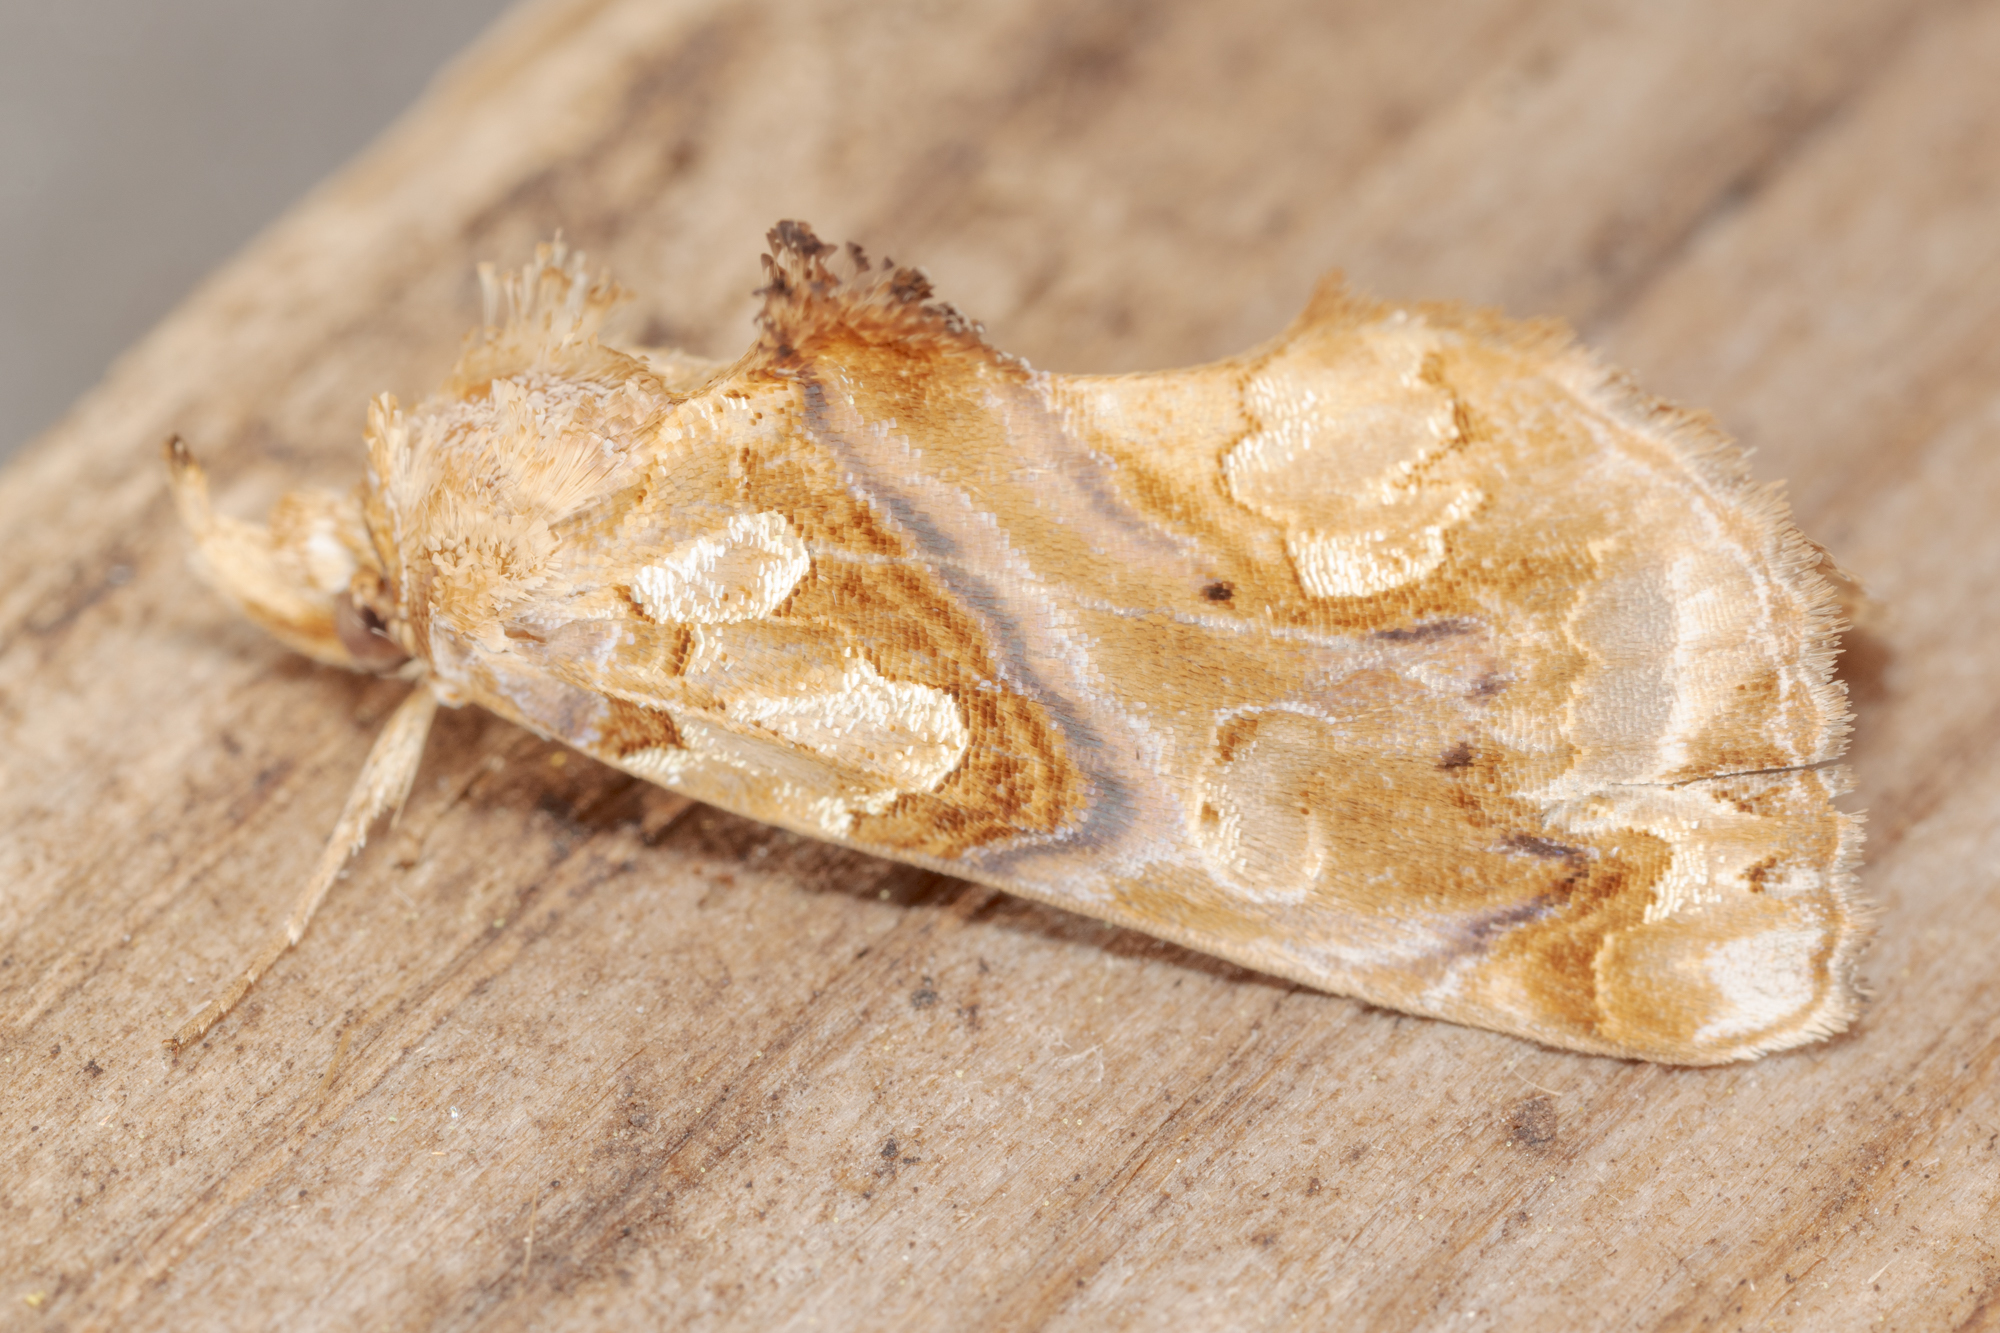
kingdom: Animalia
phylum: Arthropoda
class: Insecta
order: Lepidoptera
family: Erebidae
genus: Plusiodonta
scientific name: Plusiodonta compressipalpis
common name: Moonseed moth
